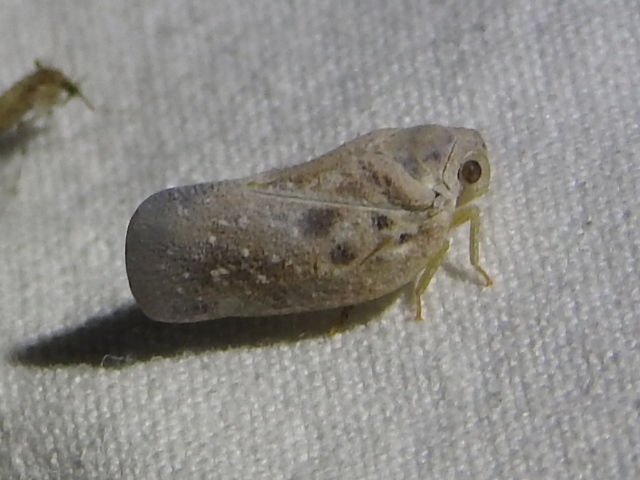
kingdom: Animalia
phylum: Arthropoda
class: Insecta
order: Hemiptera
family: Flatidae
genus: Metcalfa
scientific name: Metcalfa pruinosa
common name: Citrus flatid planthopper
